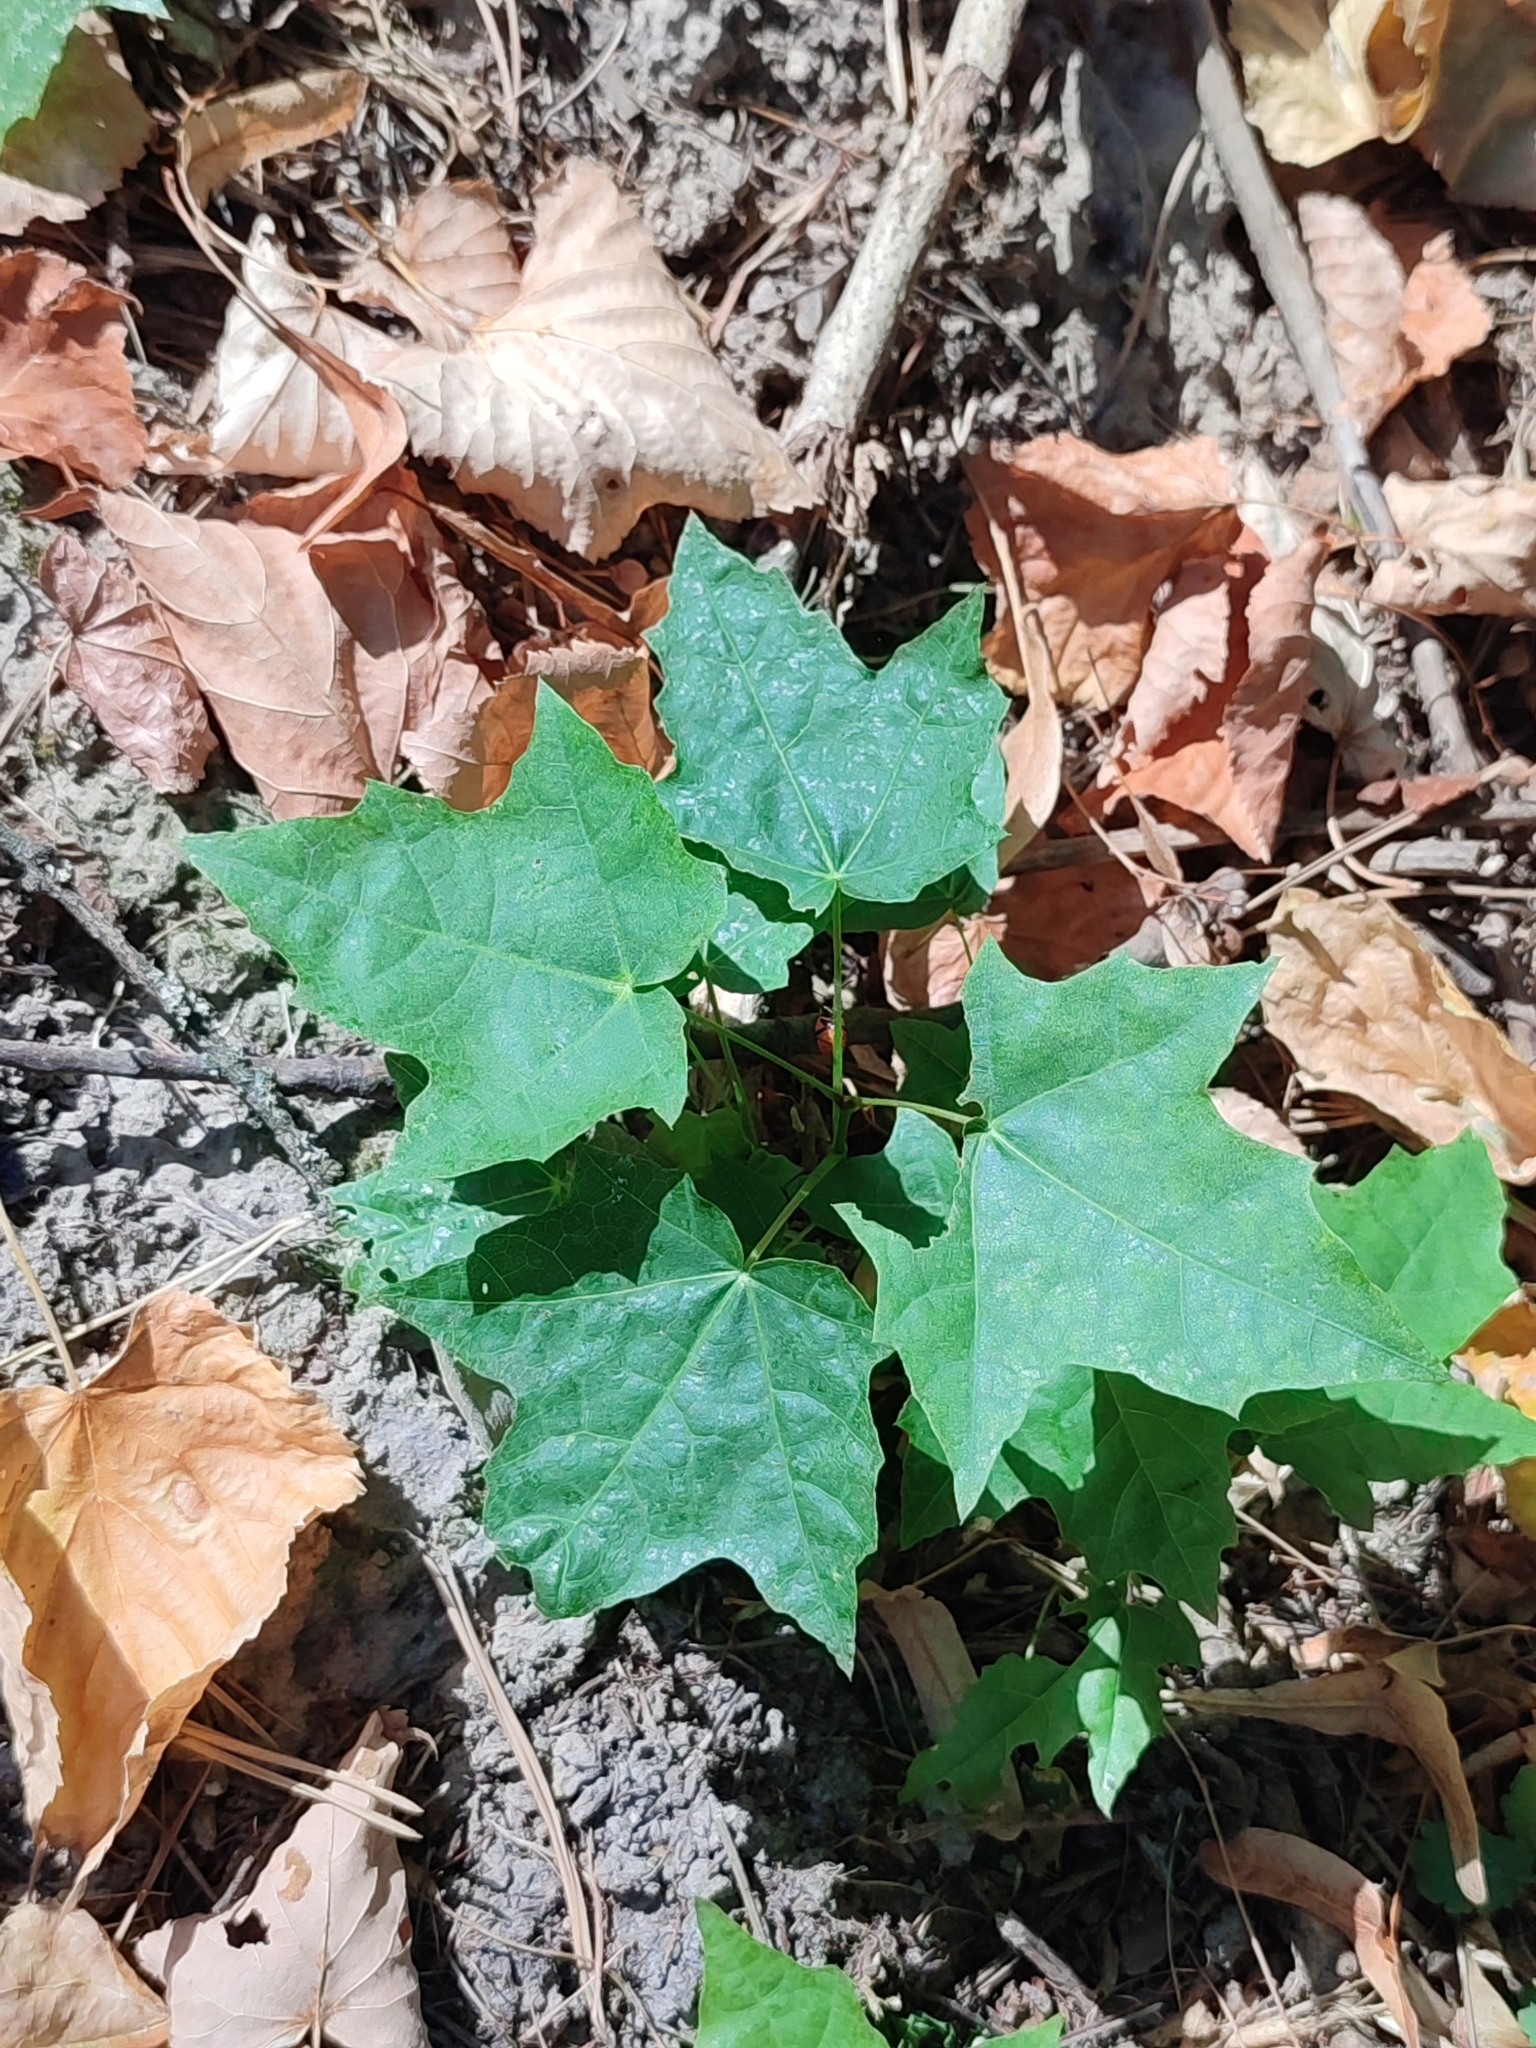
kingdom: Plantae
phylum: Tracheophyta
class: Magnoliopsida
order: Sapindales
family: Sapindaceae
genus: Acer
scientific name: Acer platanoides
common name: Norway maple
